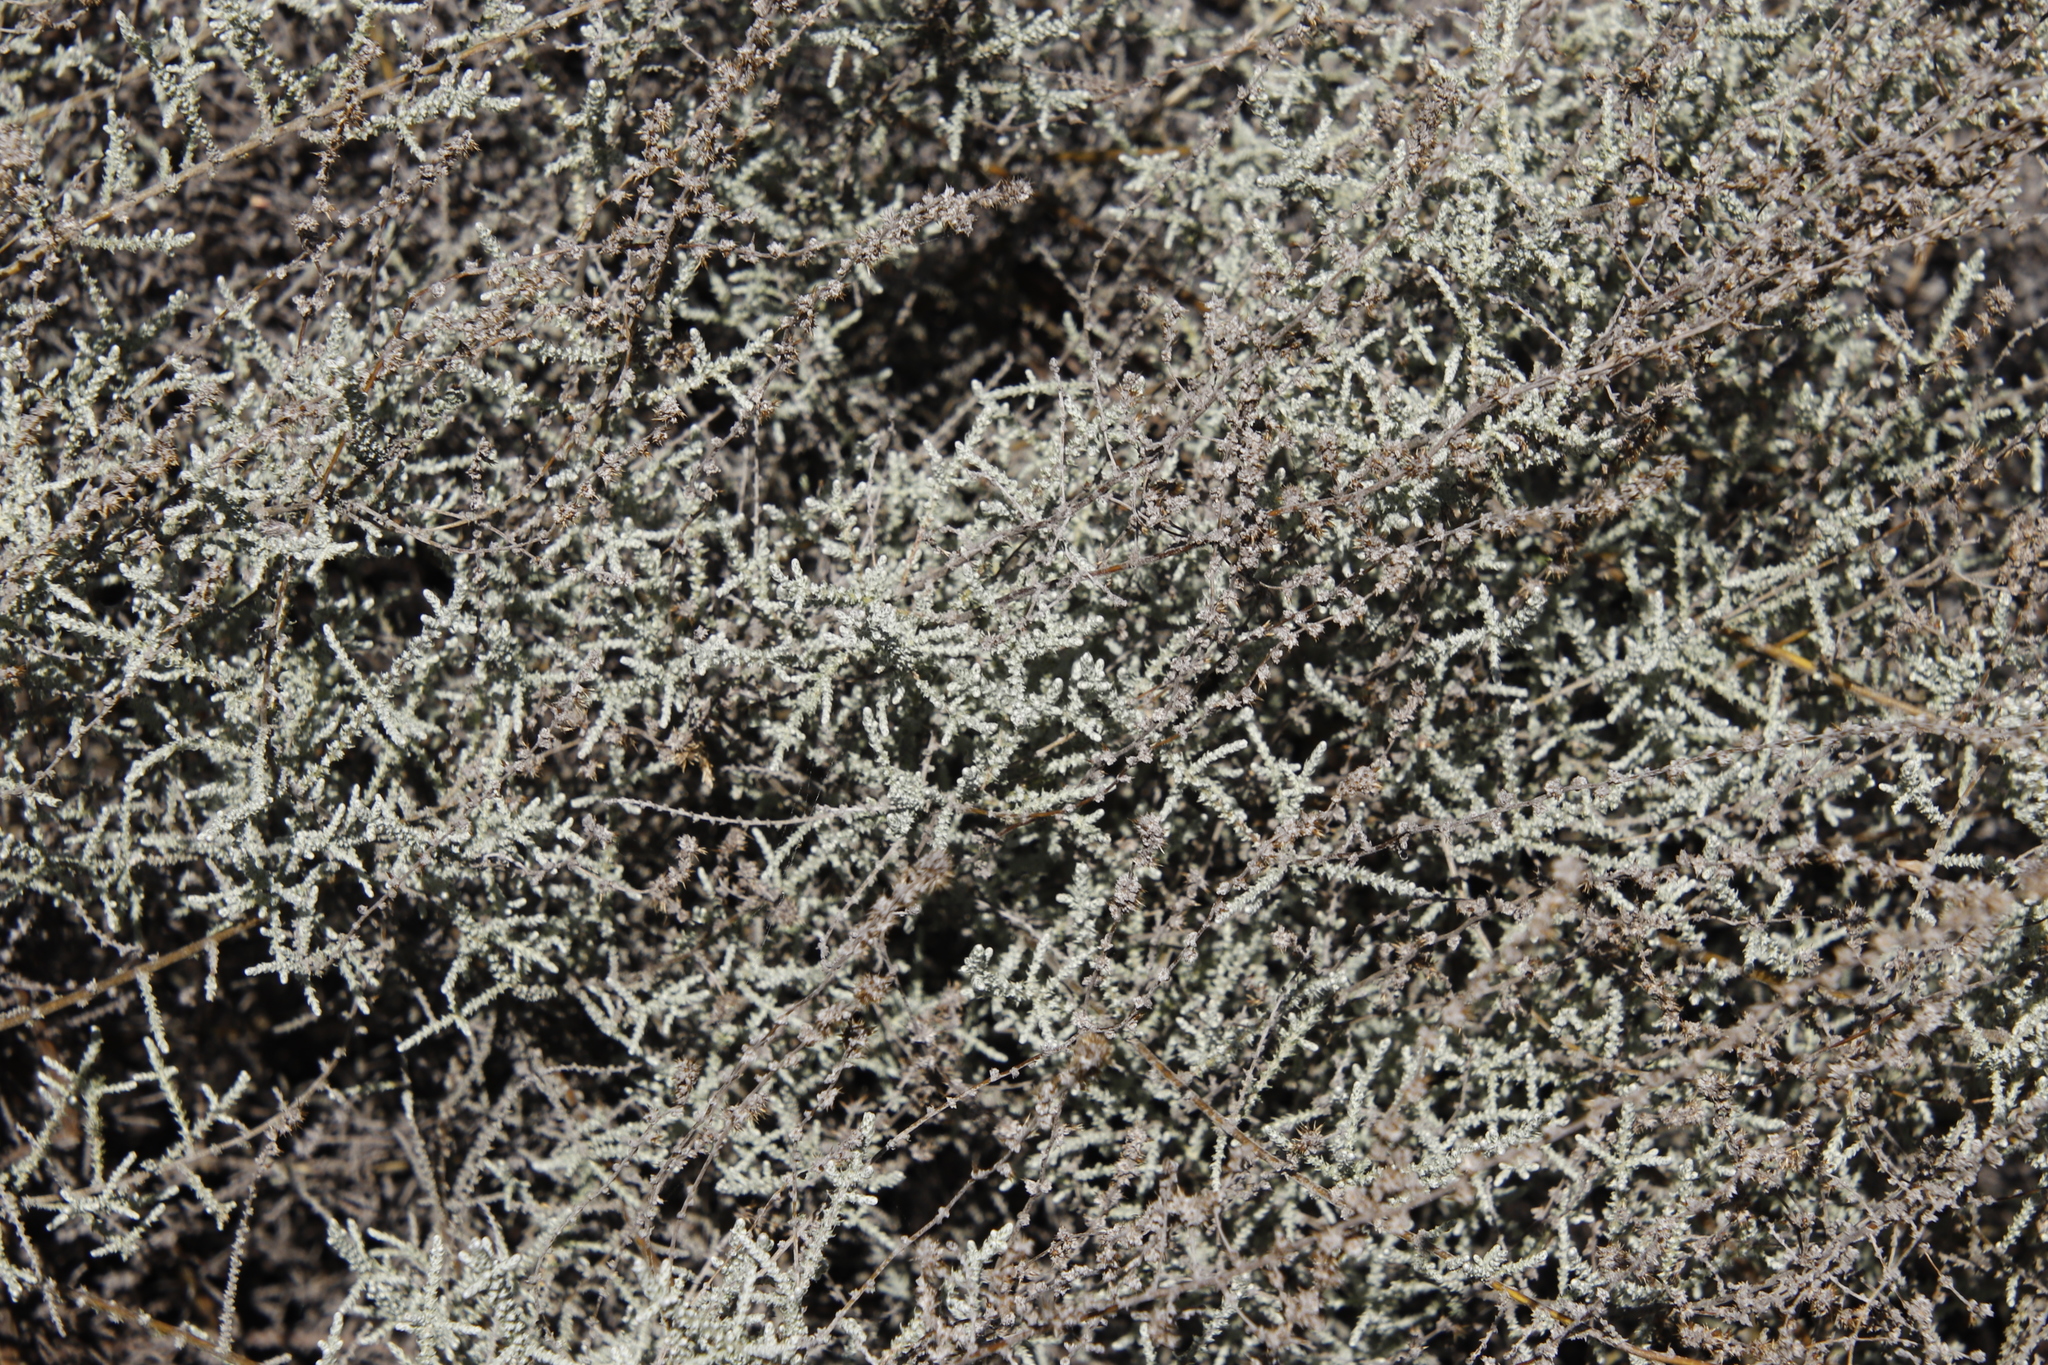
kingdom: Plantae
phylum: Tracheophyta
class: Magnoliopsida
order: Asterales
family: Asteraceae
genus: Seriphium
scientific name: Seriphium plumosum
